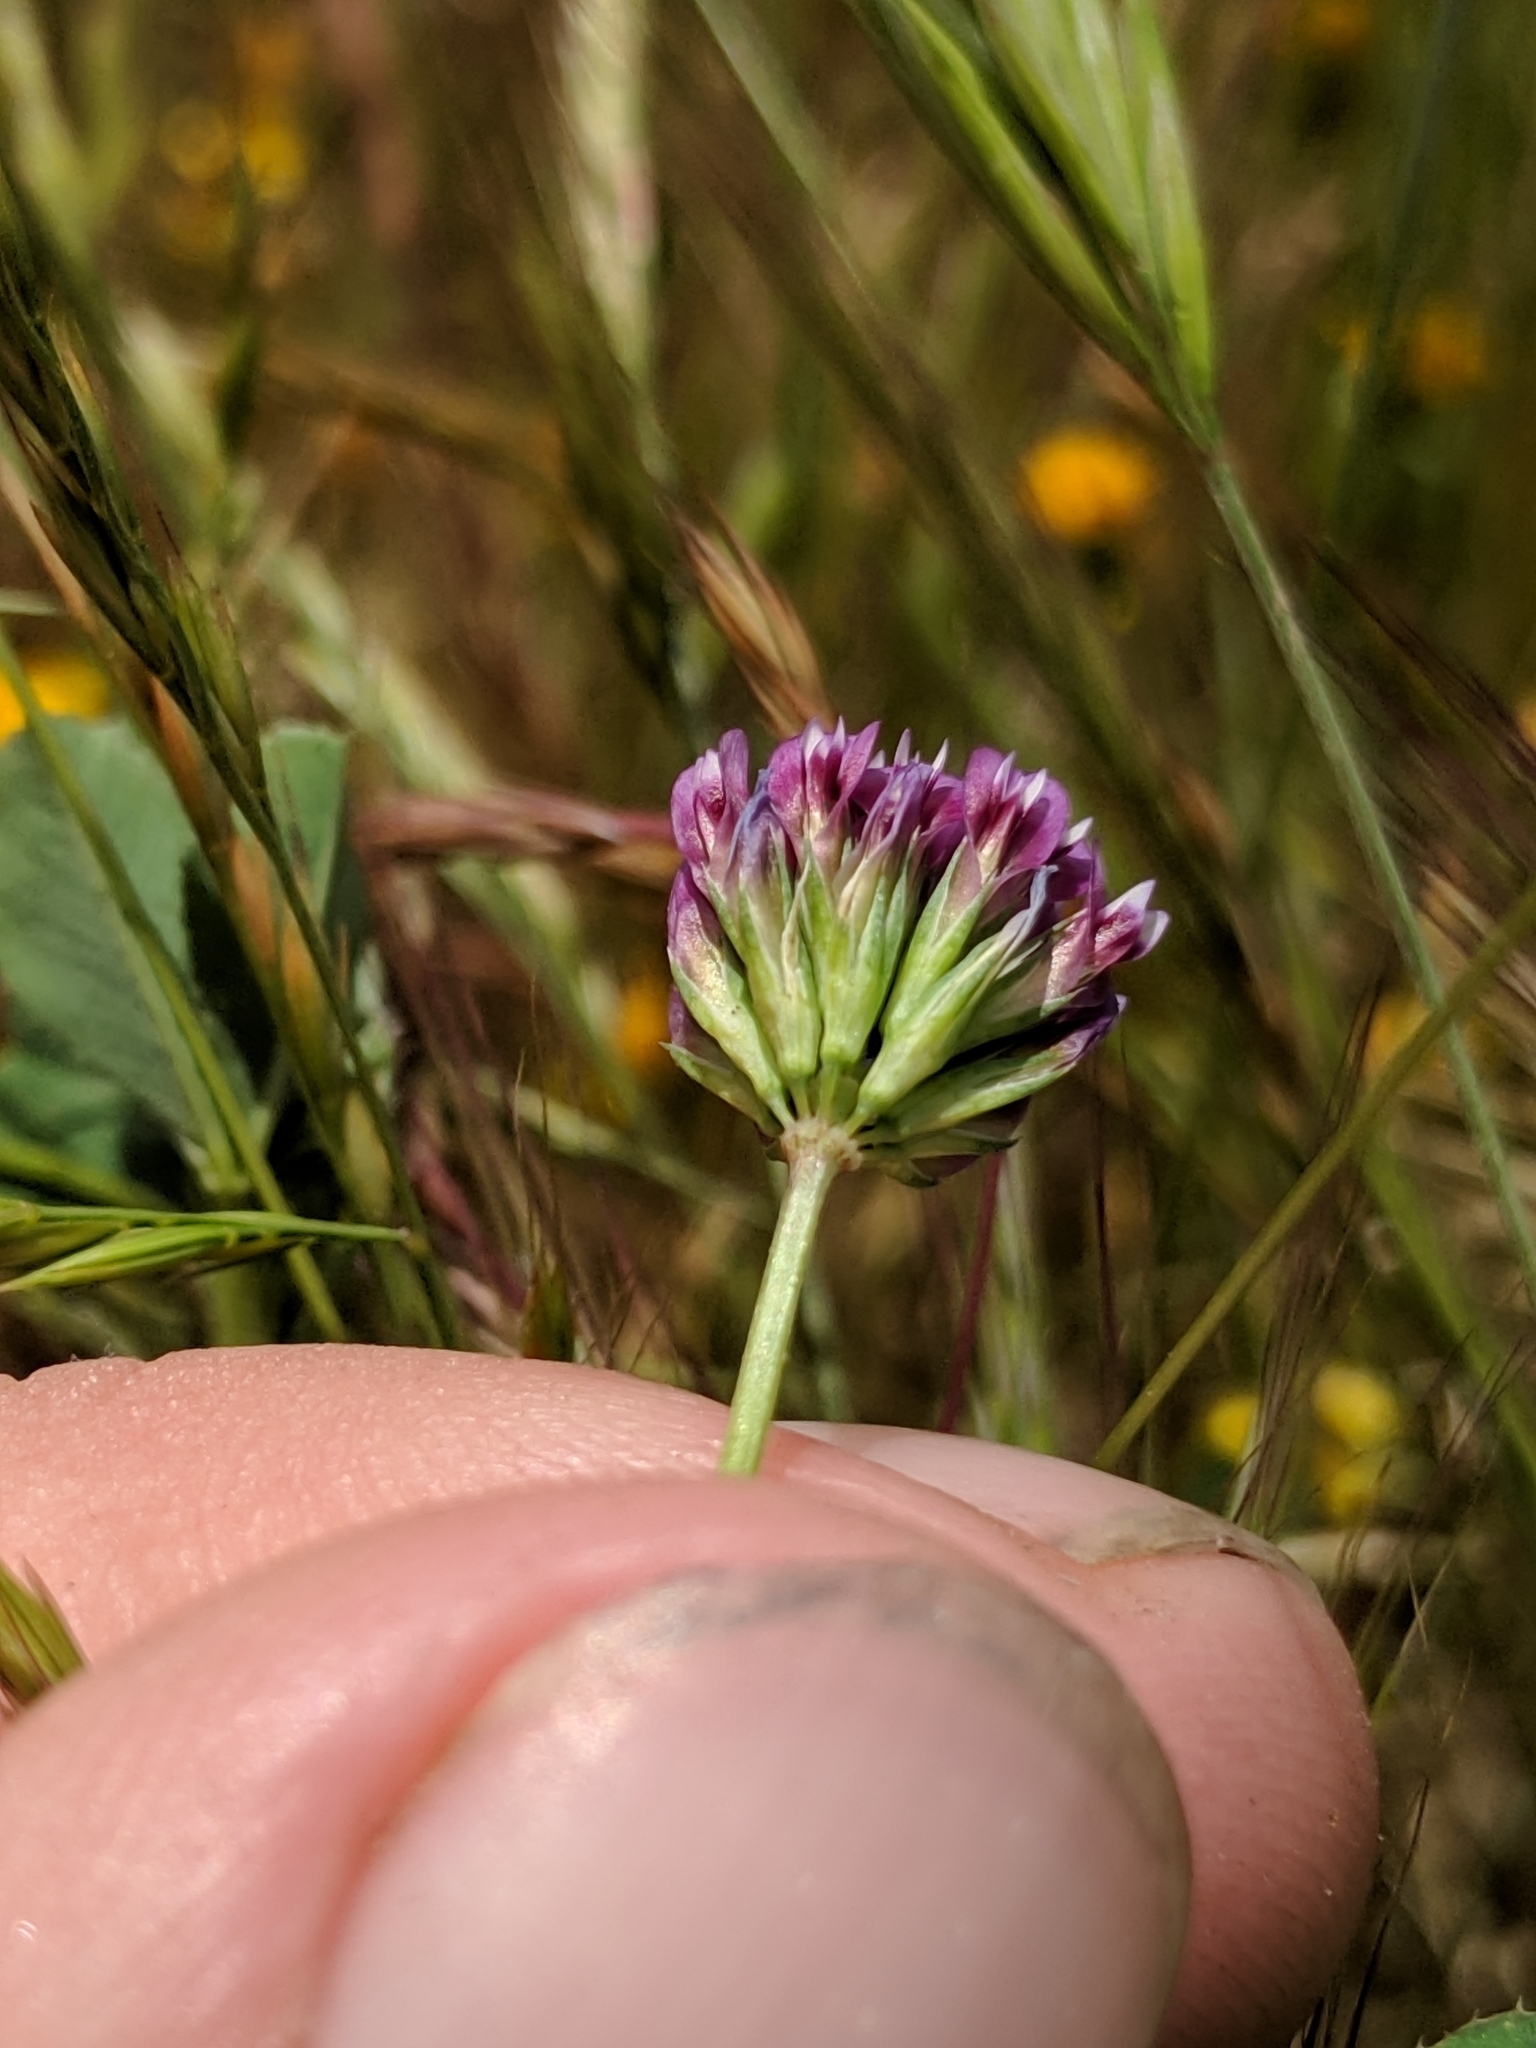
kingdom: Plantae
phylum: Tracheophyta
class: Magnoliopsida
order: Fabales
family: Fabaceae
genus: Trifolium
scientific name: Trifolium gracilentum
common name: Slender clover
